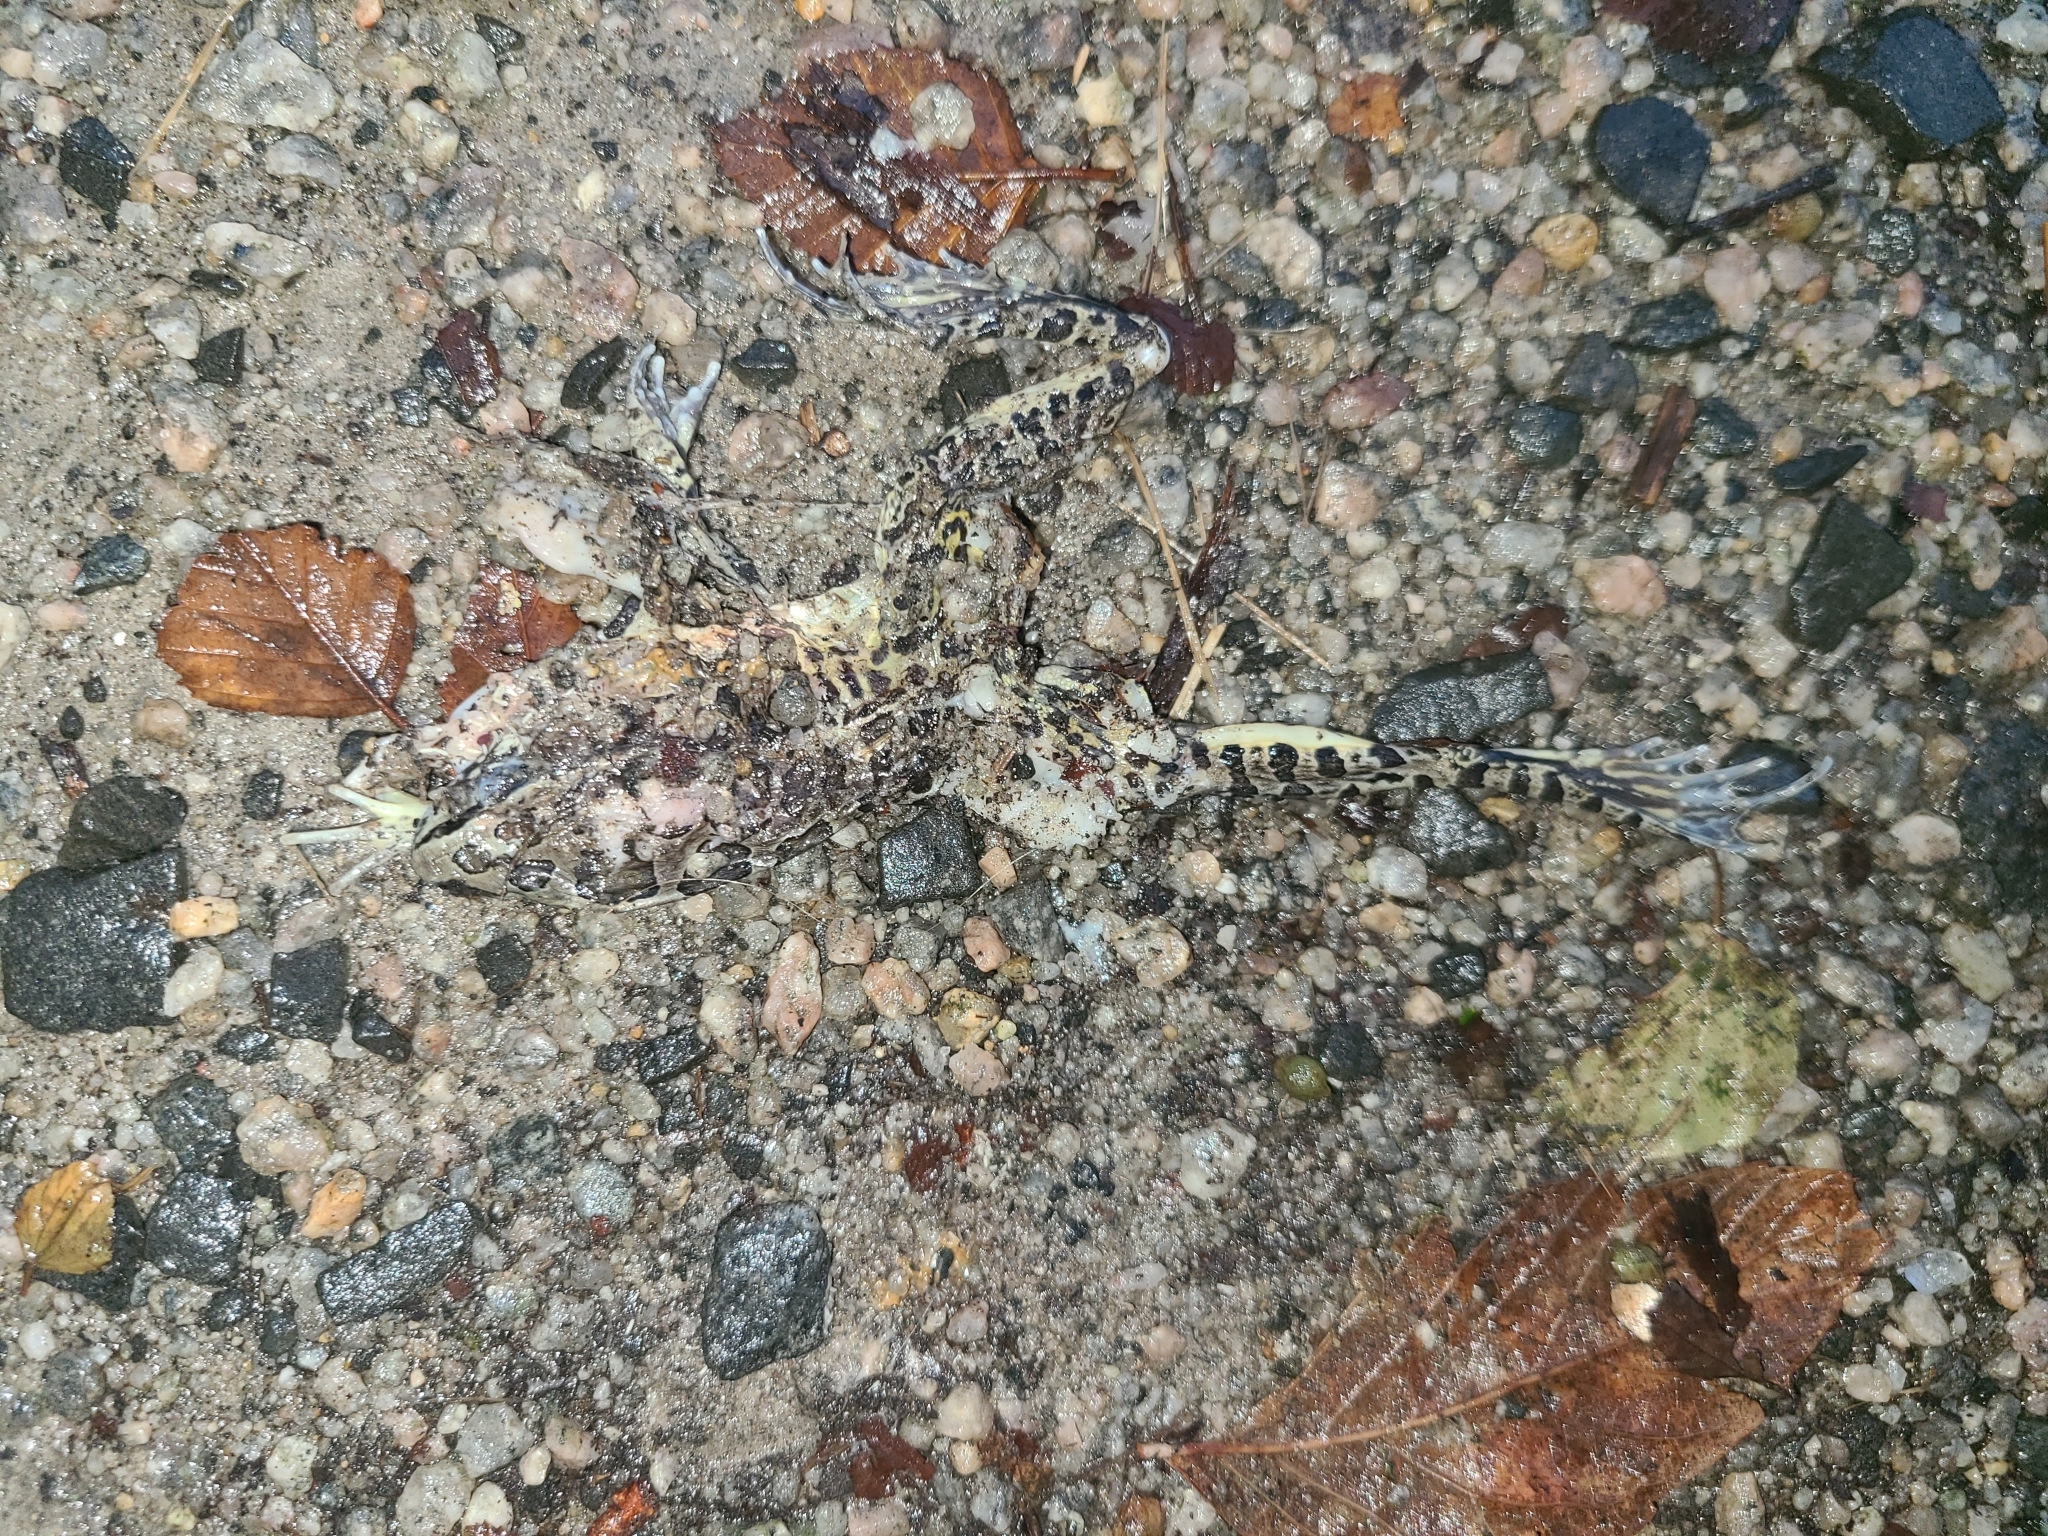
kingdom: Animalia
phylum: Chordata
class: Amphibia
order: Anura
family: Ranidae
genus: Lithobates
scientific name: Lithobates palustris
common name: Pickerel frog
